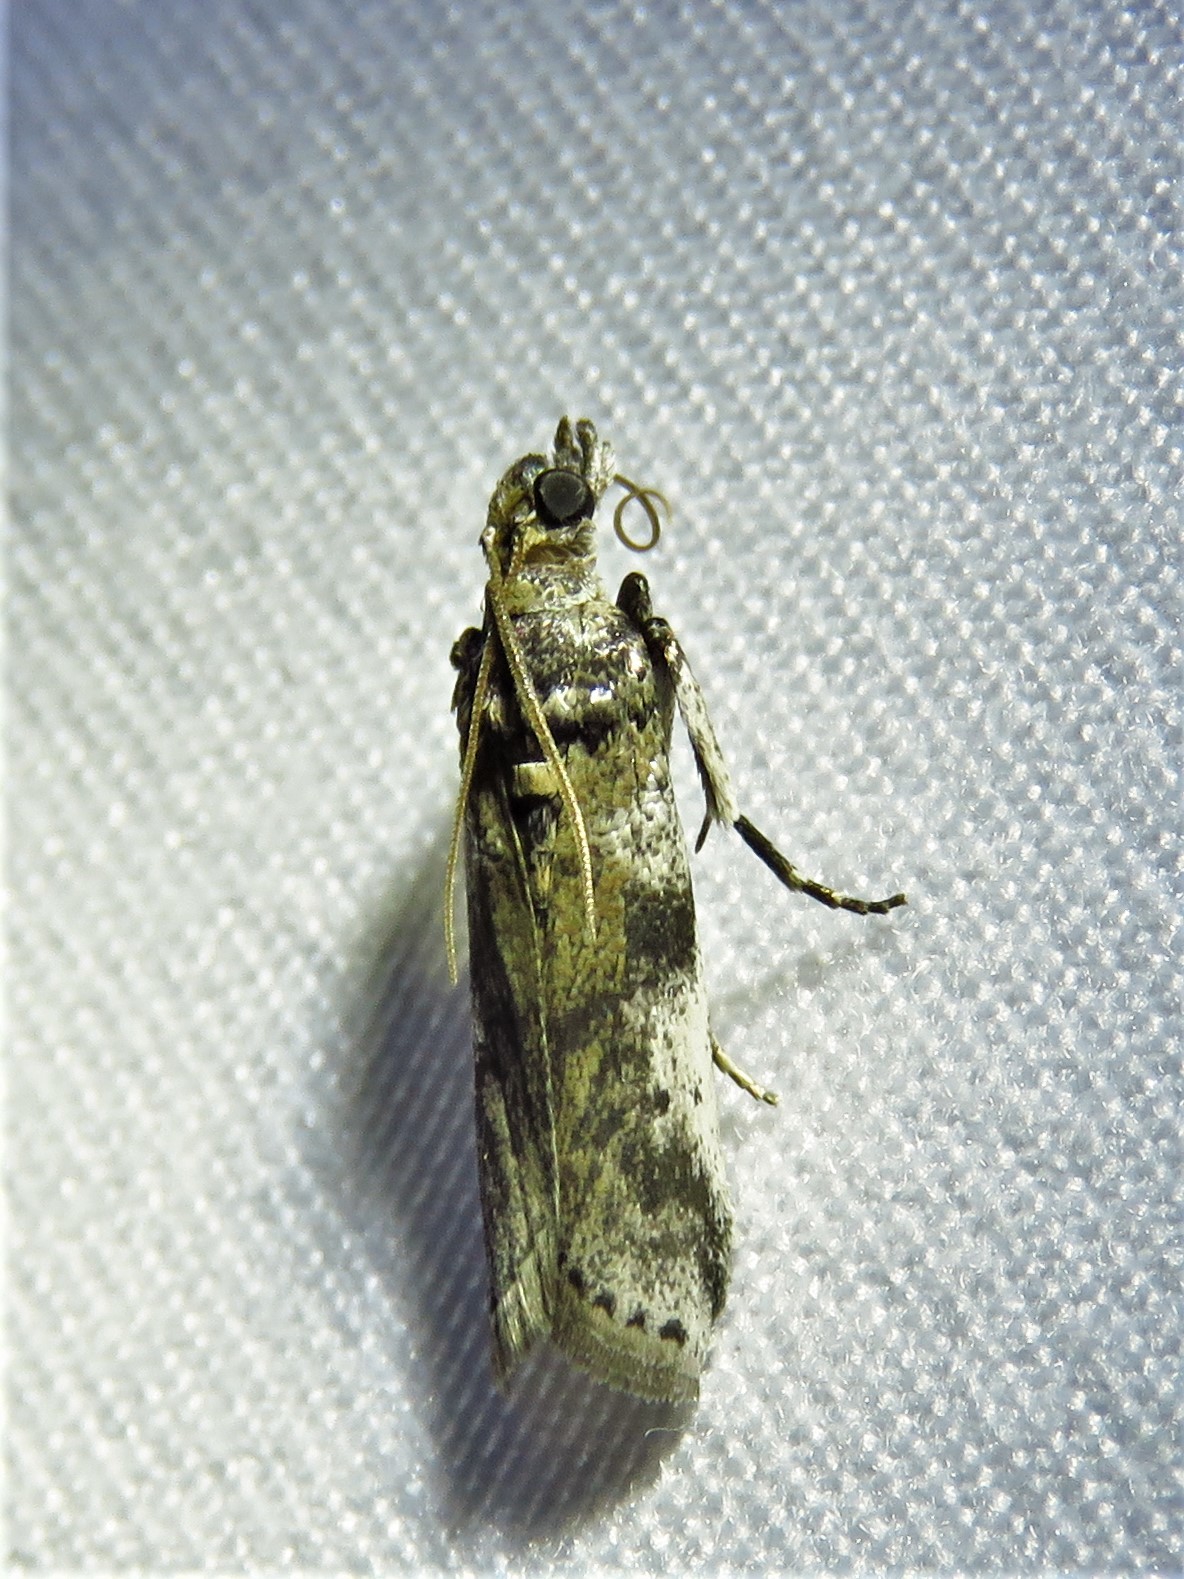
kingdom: Animalia
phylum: Arthropoda
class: Insecta
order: Lepidoptera
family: Pyralidae
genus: Laetilia
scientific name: Laetilia coccidivora
